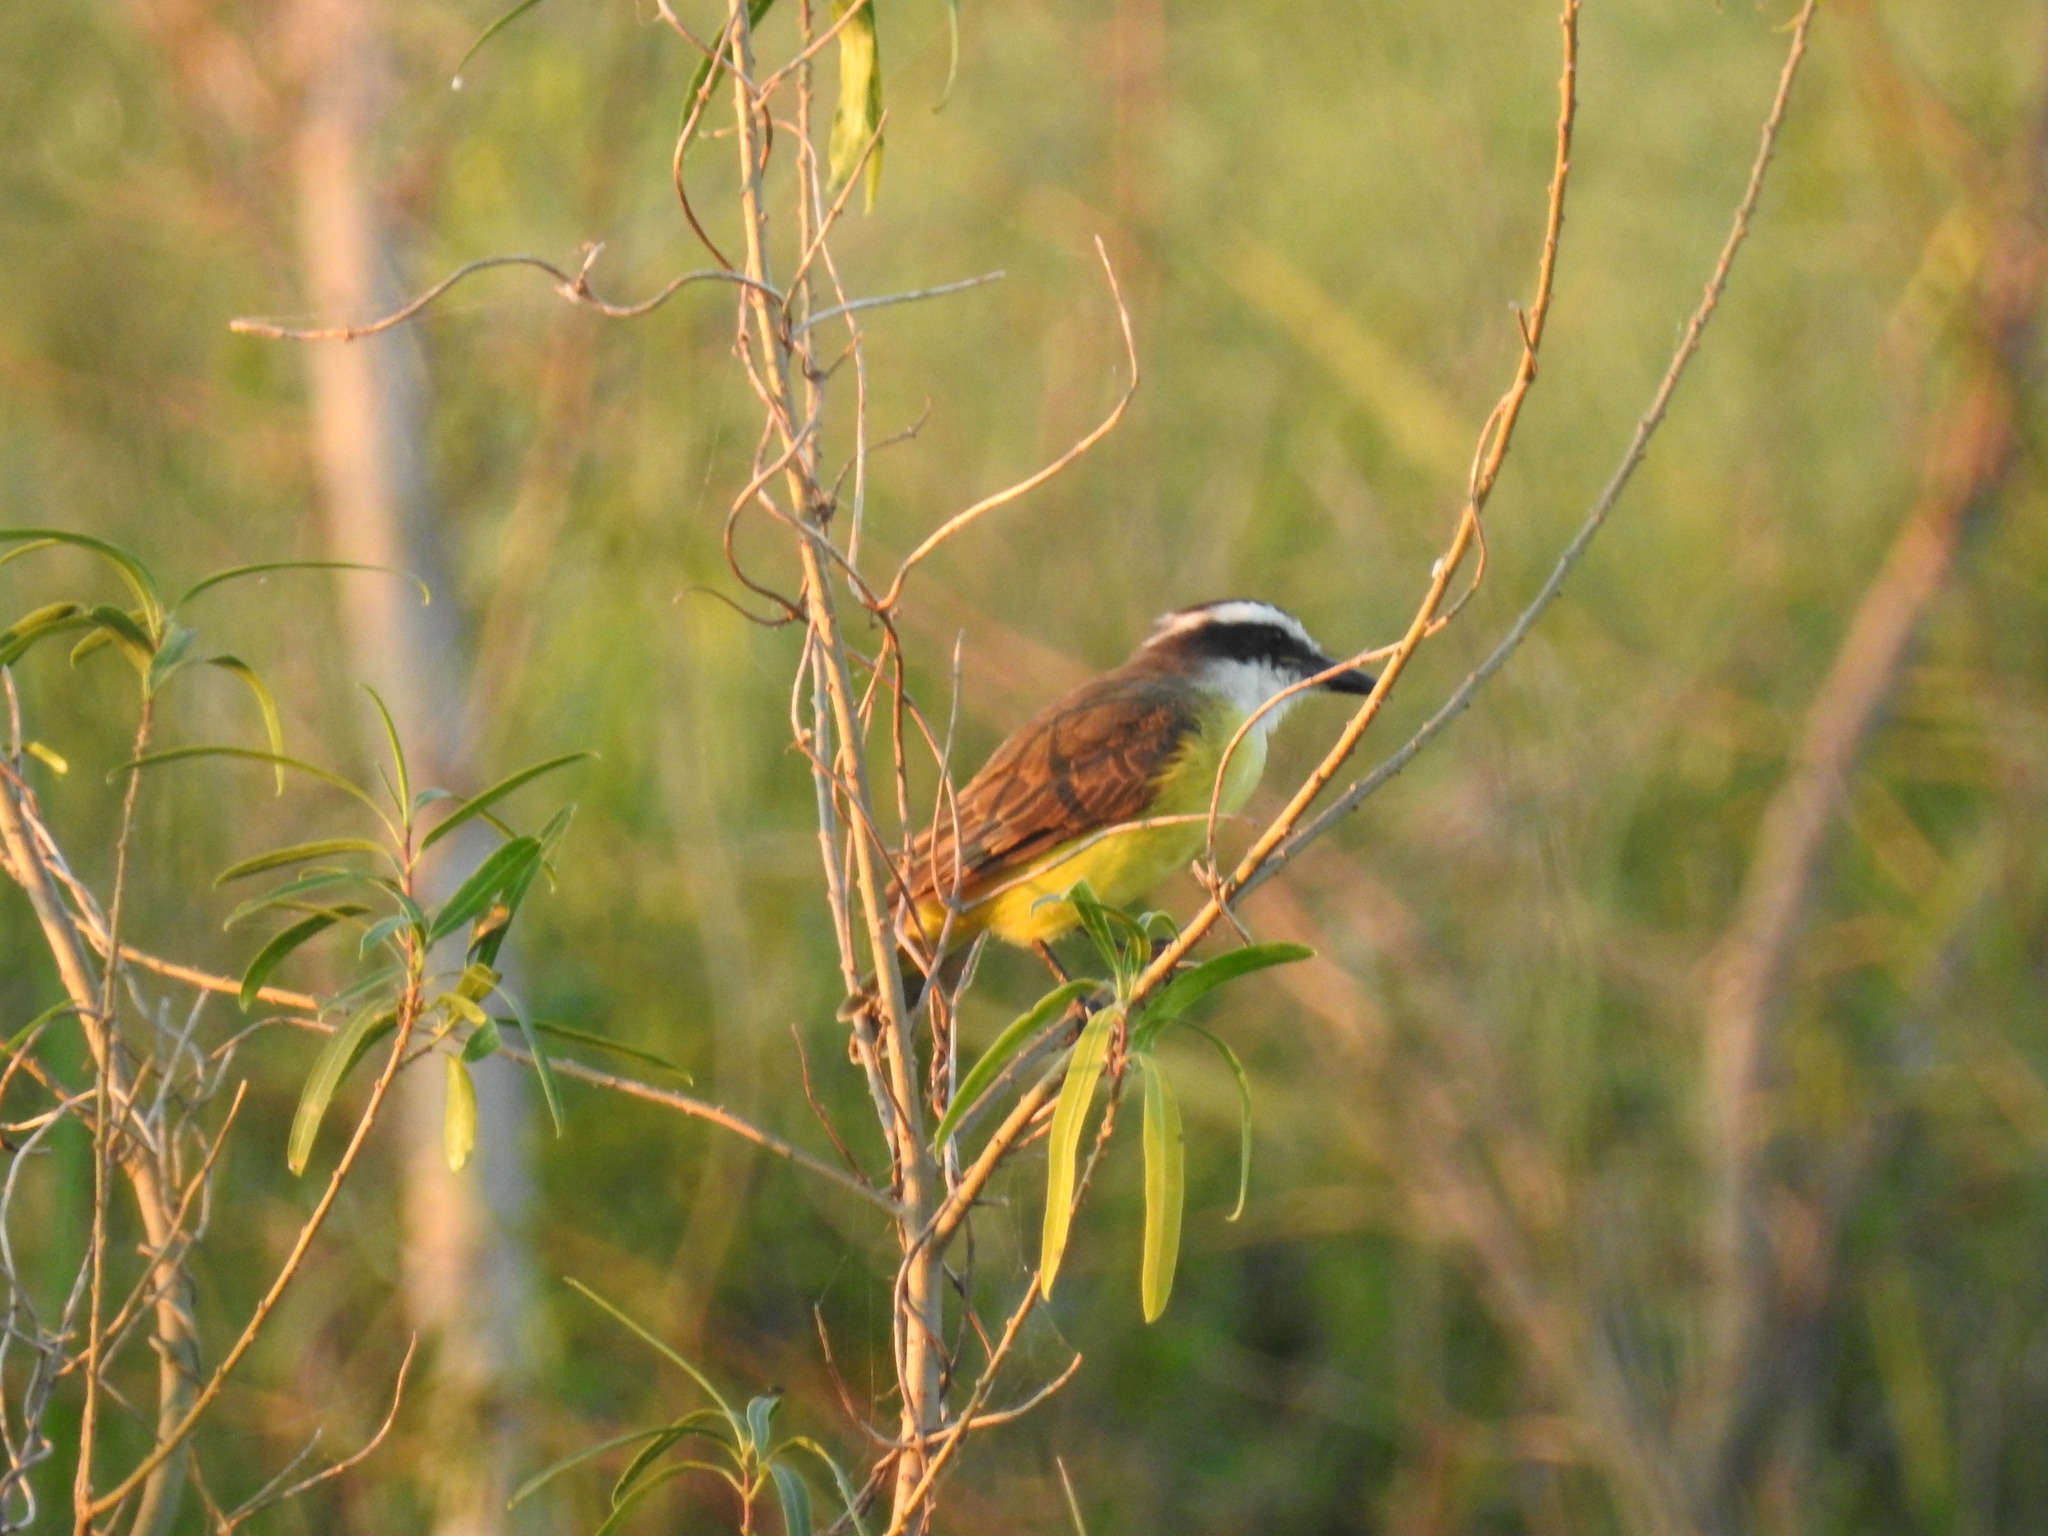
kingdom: Animalia
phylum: Chordata
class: Aves
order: Passeriformes
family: Tyrannidae
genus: Pitangus
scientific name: Pitangus sulphuratus
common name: Great kiskadee
